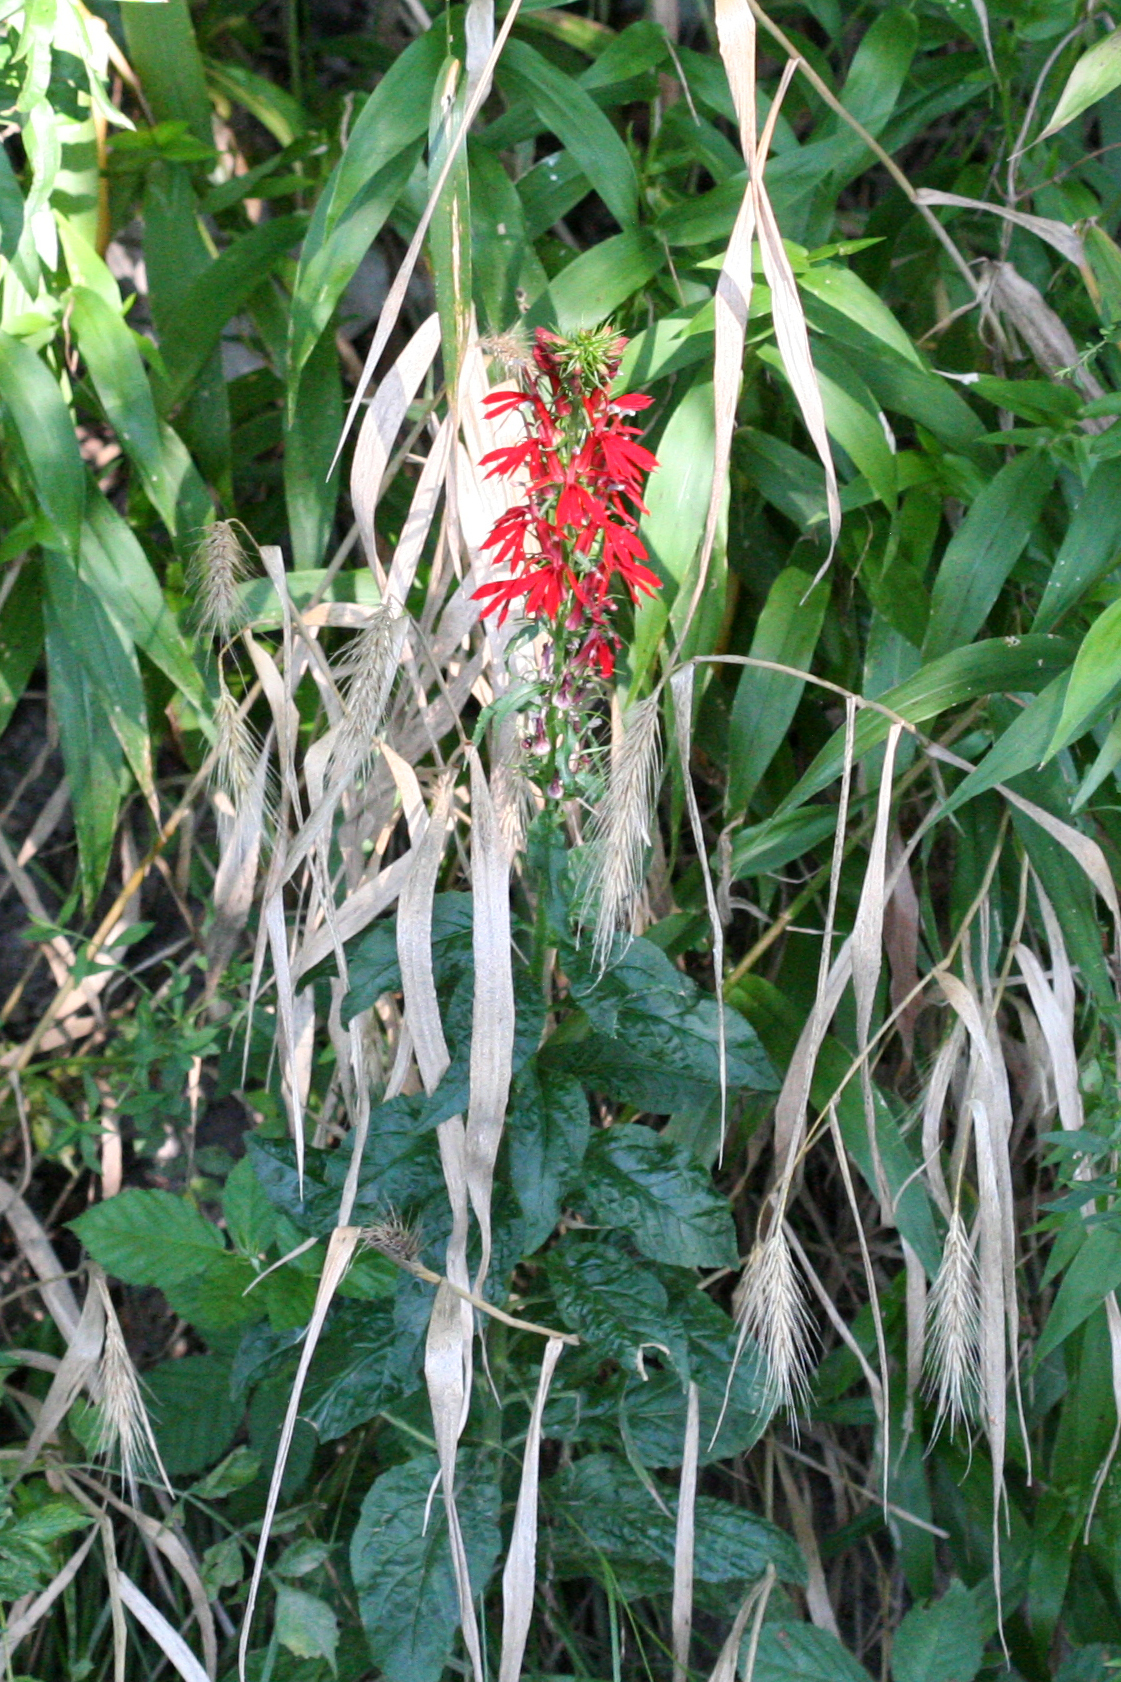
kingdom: Plantae
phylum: Tracheophyta
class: Magnoliopsida
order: Asterales
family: Campanulaceae
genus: Lobelia
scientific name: Lobelia cardinalis
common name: Cardinal flower
